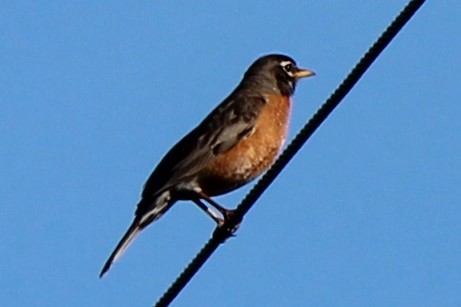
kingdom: Animalia
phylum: Chordata
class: Aves
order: Passeriformes
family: Turdidae
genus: Turdus
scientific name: Turdus migratorius
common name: American robin
